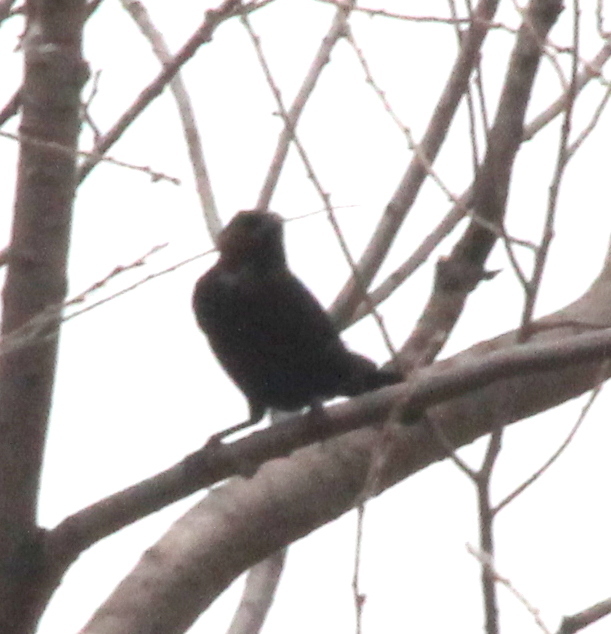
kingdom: Animalia
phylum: Chordata
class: Aves
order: Passeriformes
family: Icteridae
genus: Molothrus
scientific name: Molothrus ater
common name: Brown-headed cowbird
